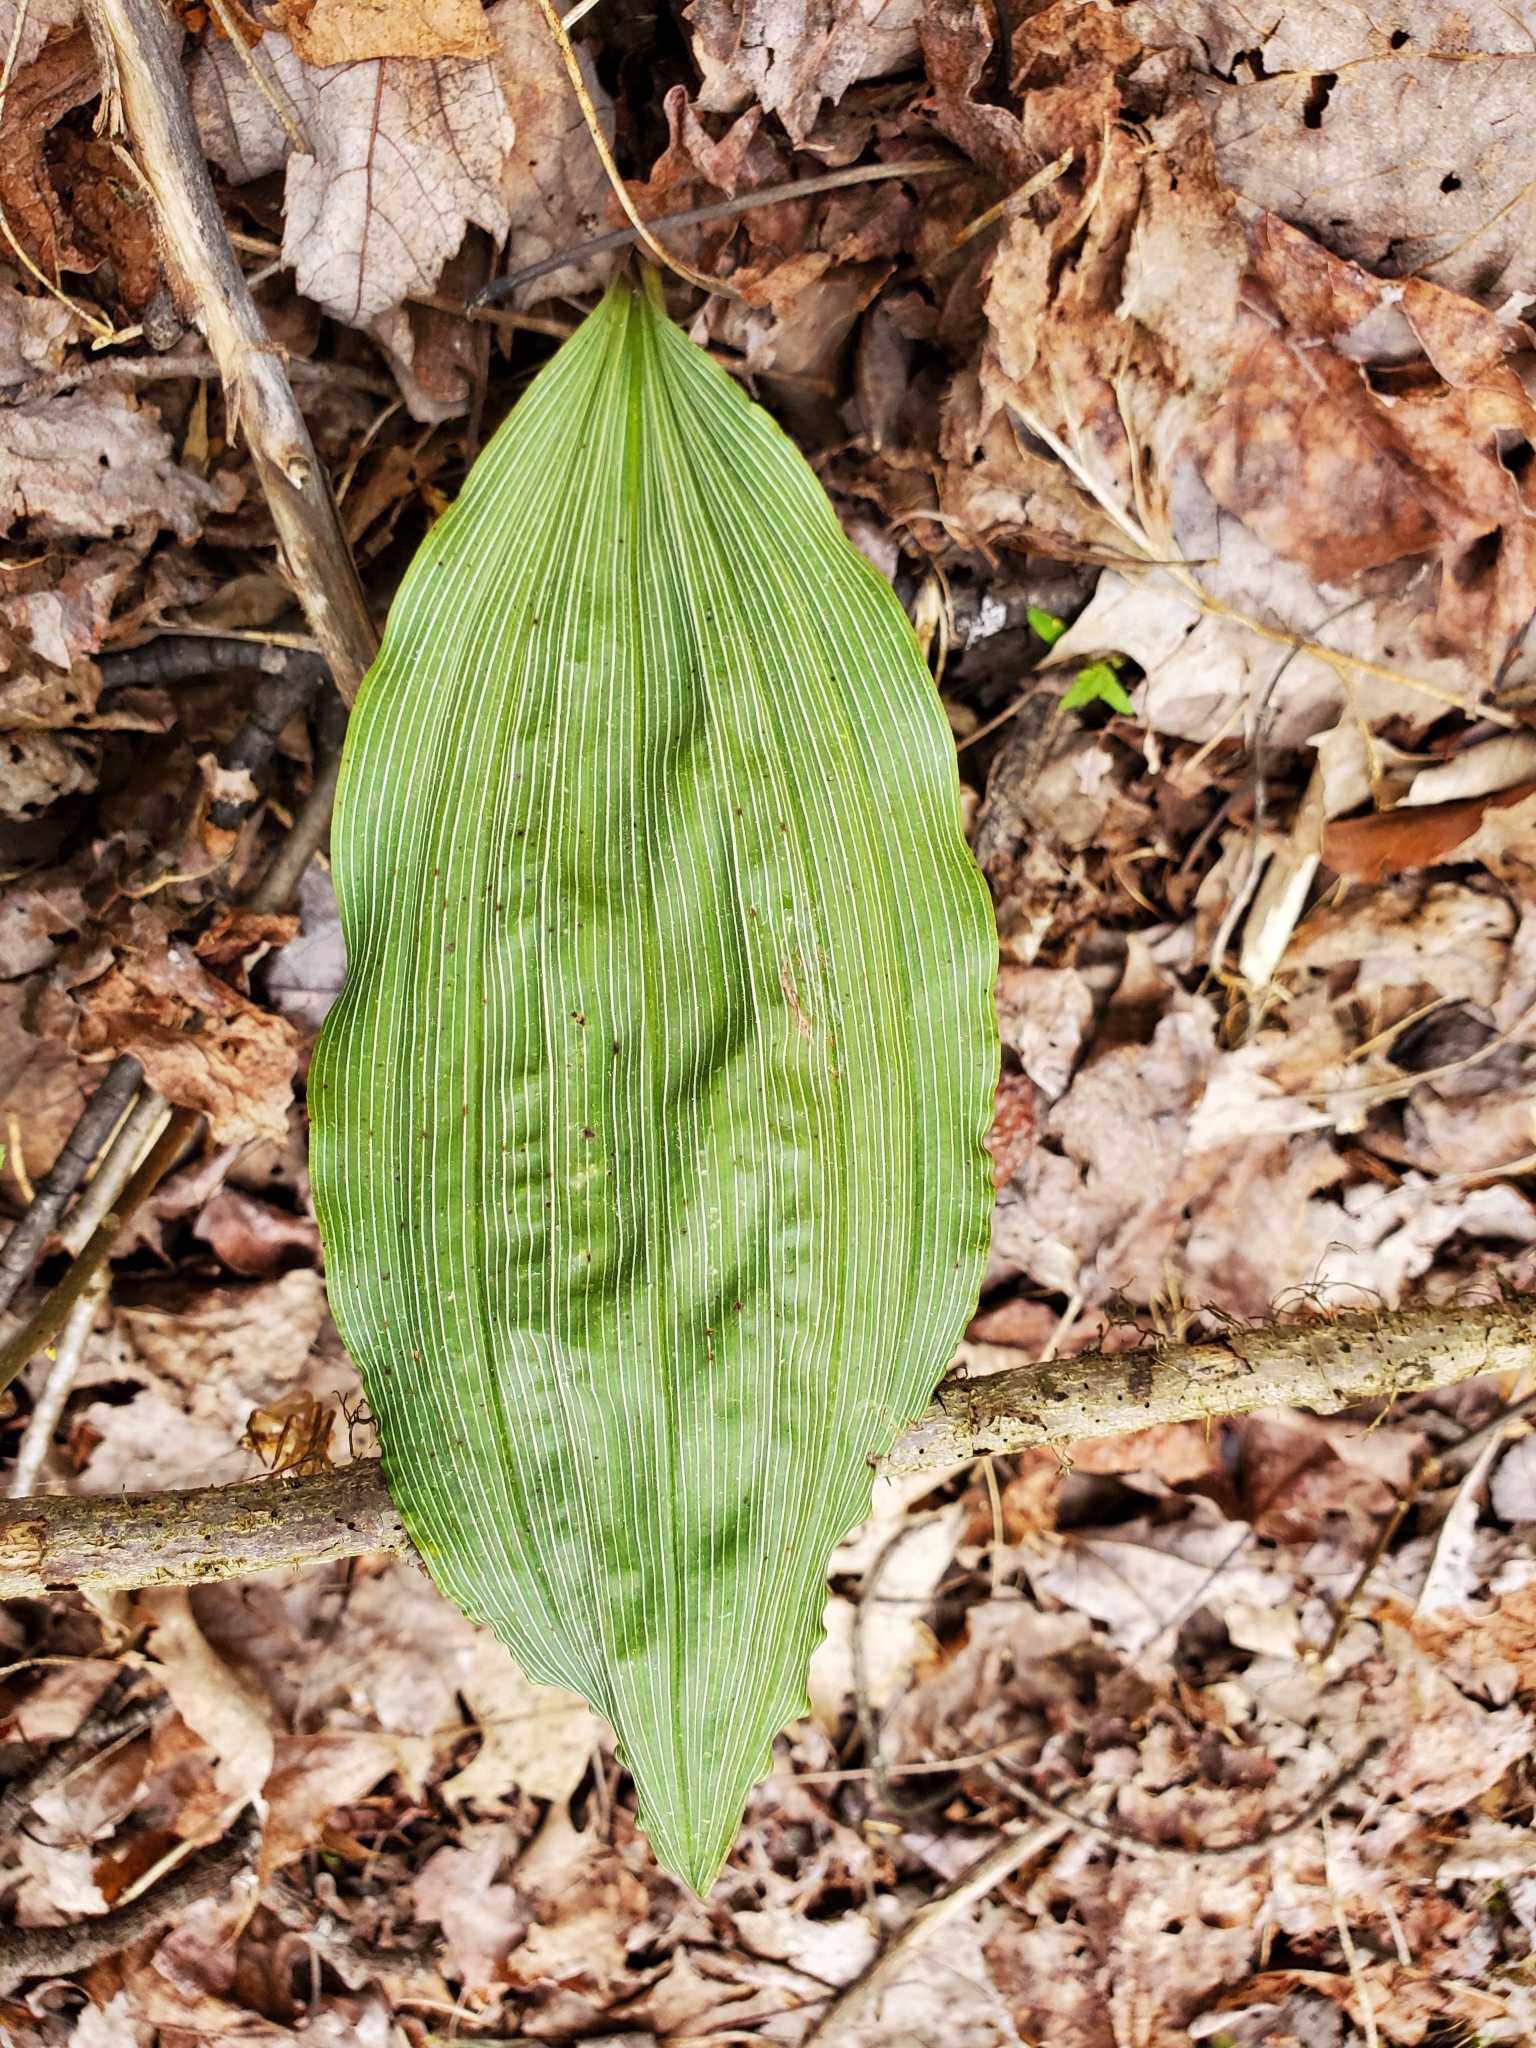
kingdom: Plantae
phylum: Tracheophyta
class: Liliopsida
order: Asparagales
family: Orchidaceae
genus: Aplectrum
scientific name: Aplectrum hyemale
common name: Adam-and-eve
